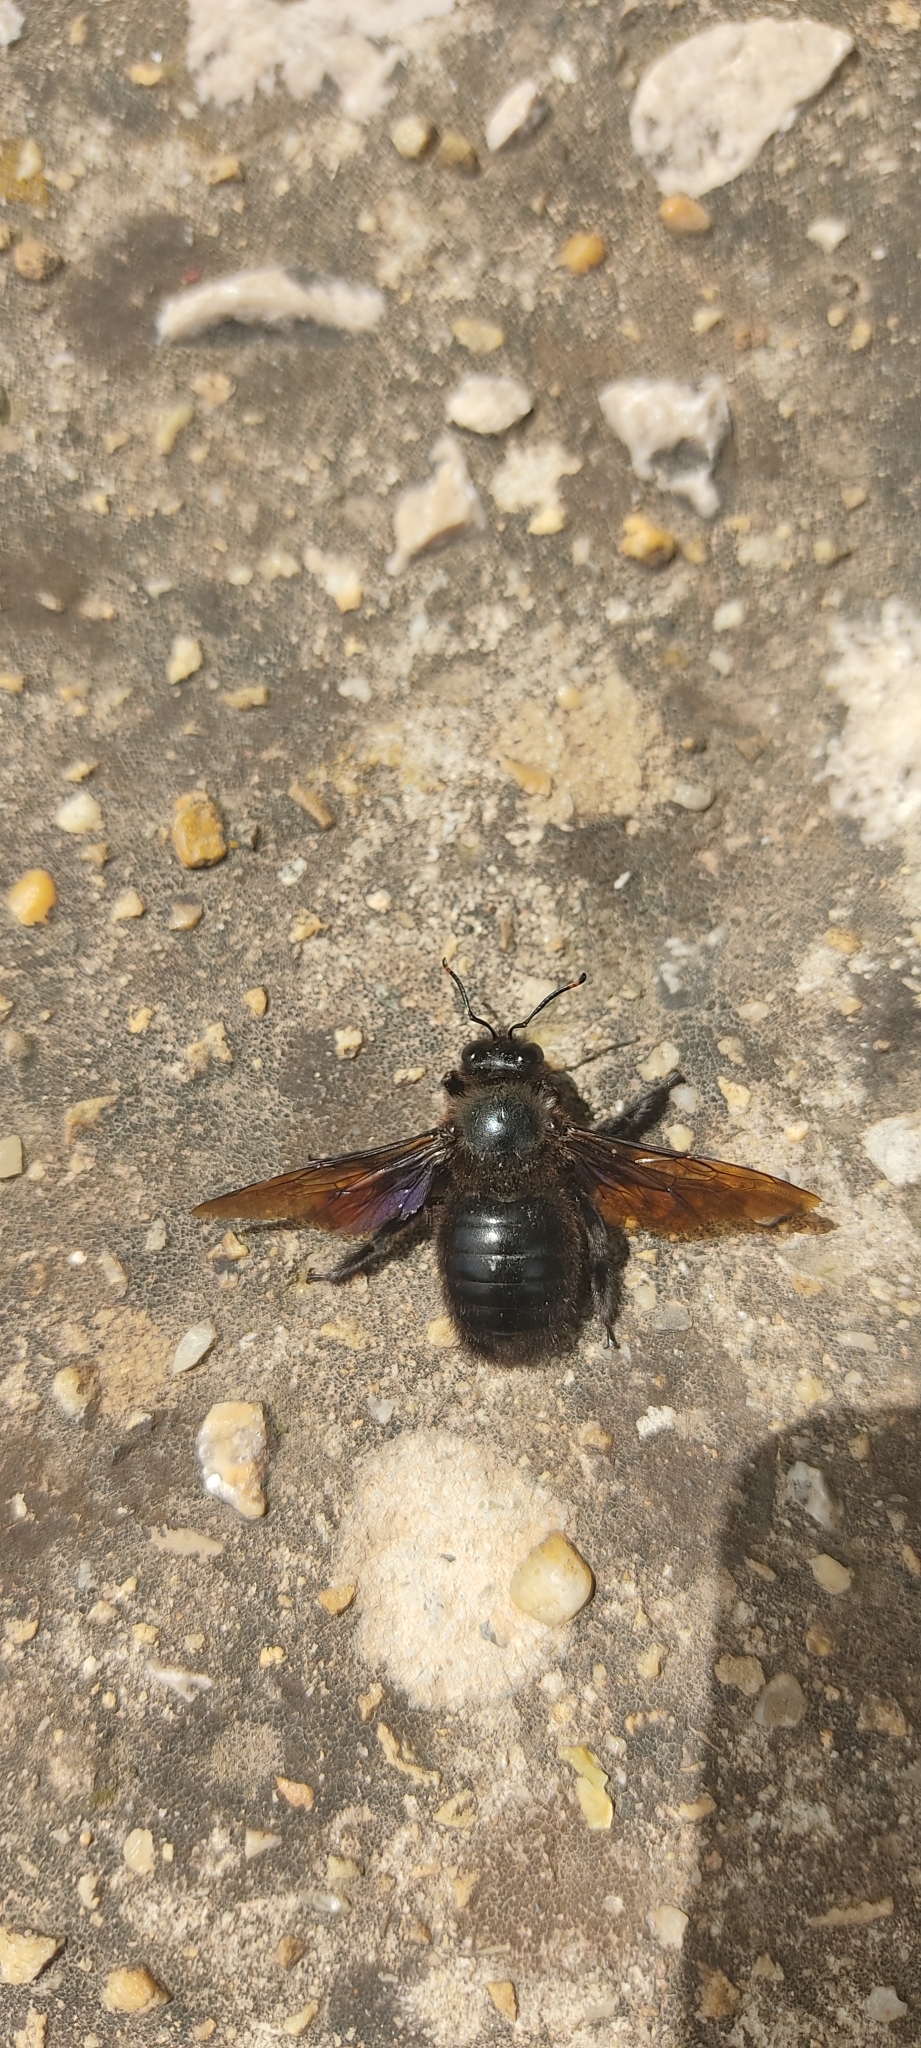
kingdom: Animalia
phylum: Arthropoda
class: Insecta
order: Hymenoptera
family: Apidae
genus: Xylocopa
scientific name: Xylocopa violacea
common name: Violet carpenter bee
